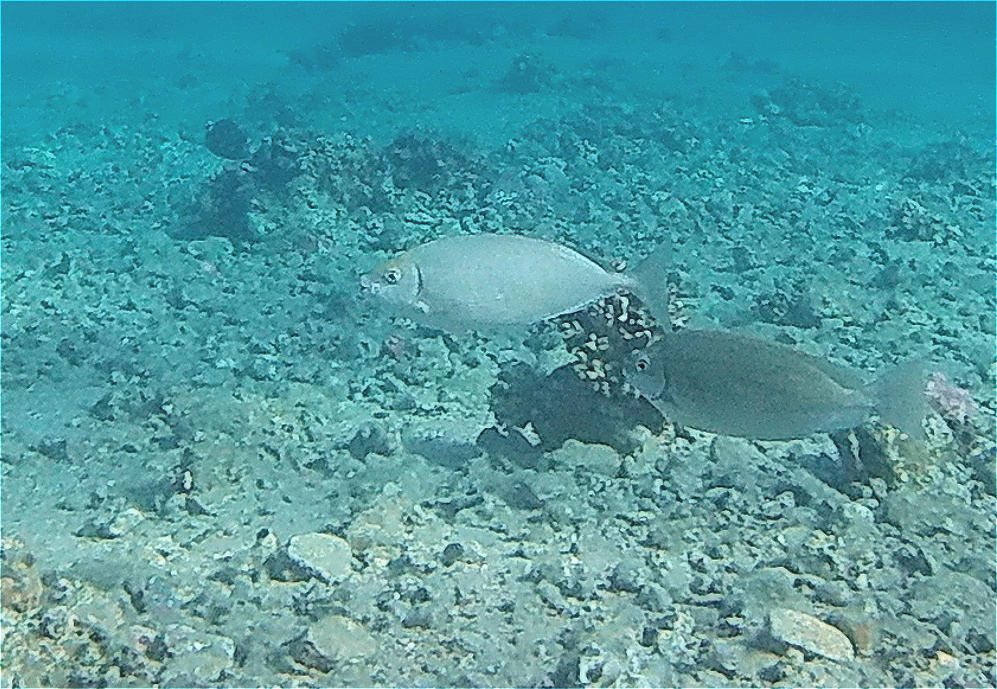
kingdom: Animalia
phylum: Chordata
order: Perciformes
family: Siganidae
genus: Siganus
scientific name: Siganus rivulatus
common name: Marbled spinefoot
